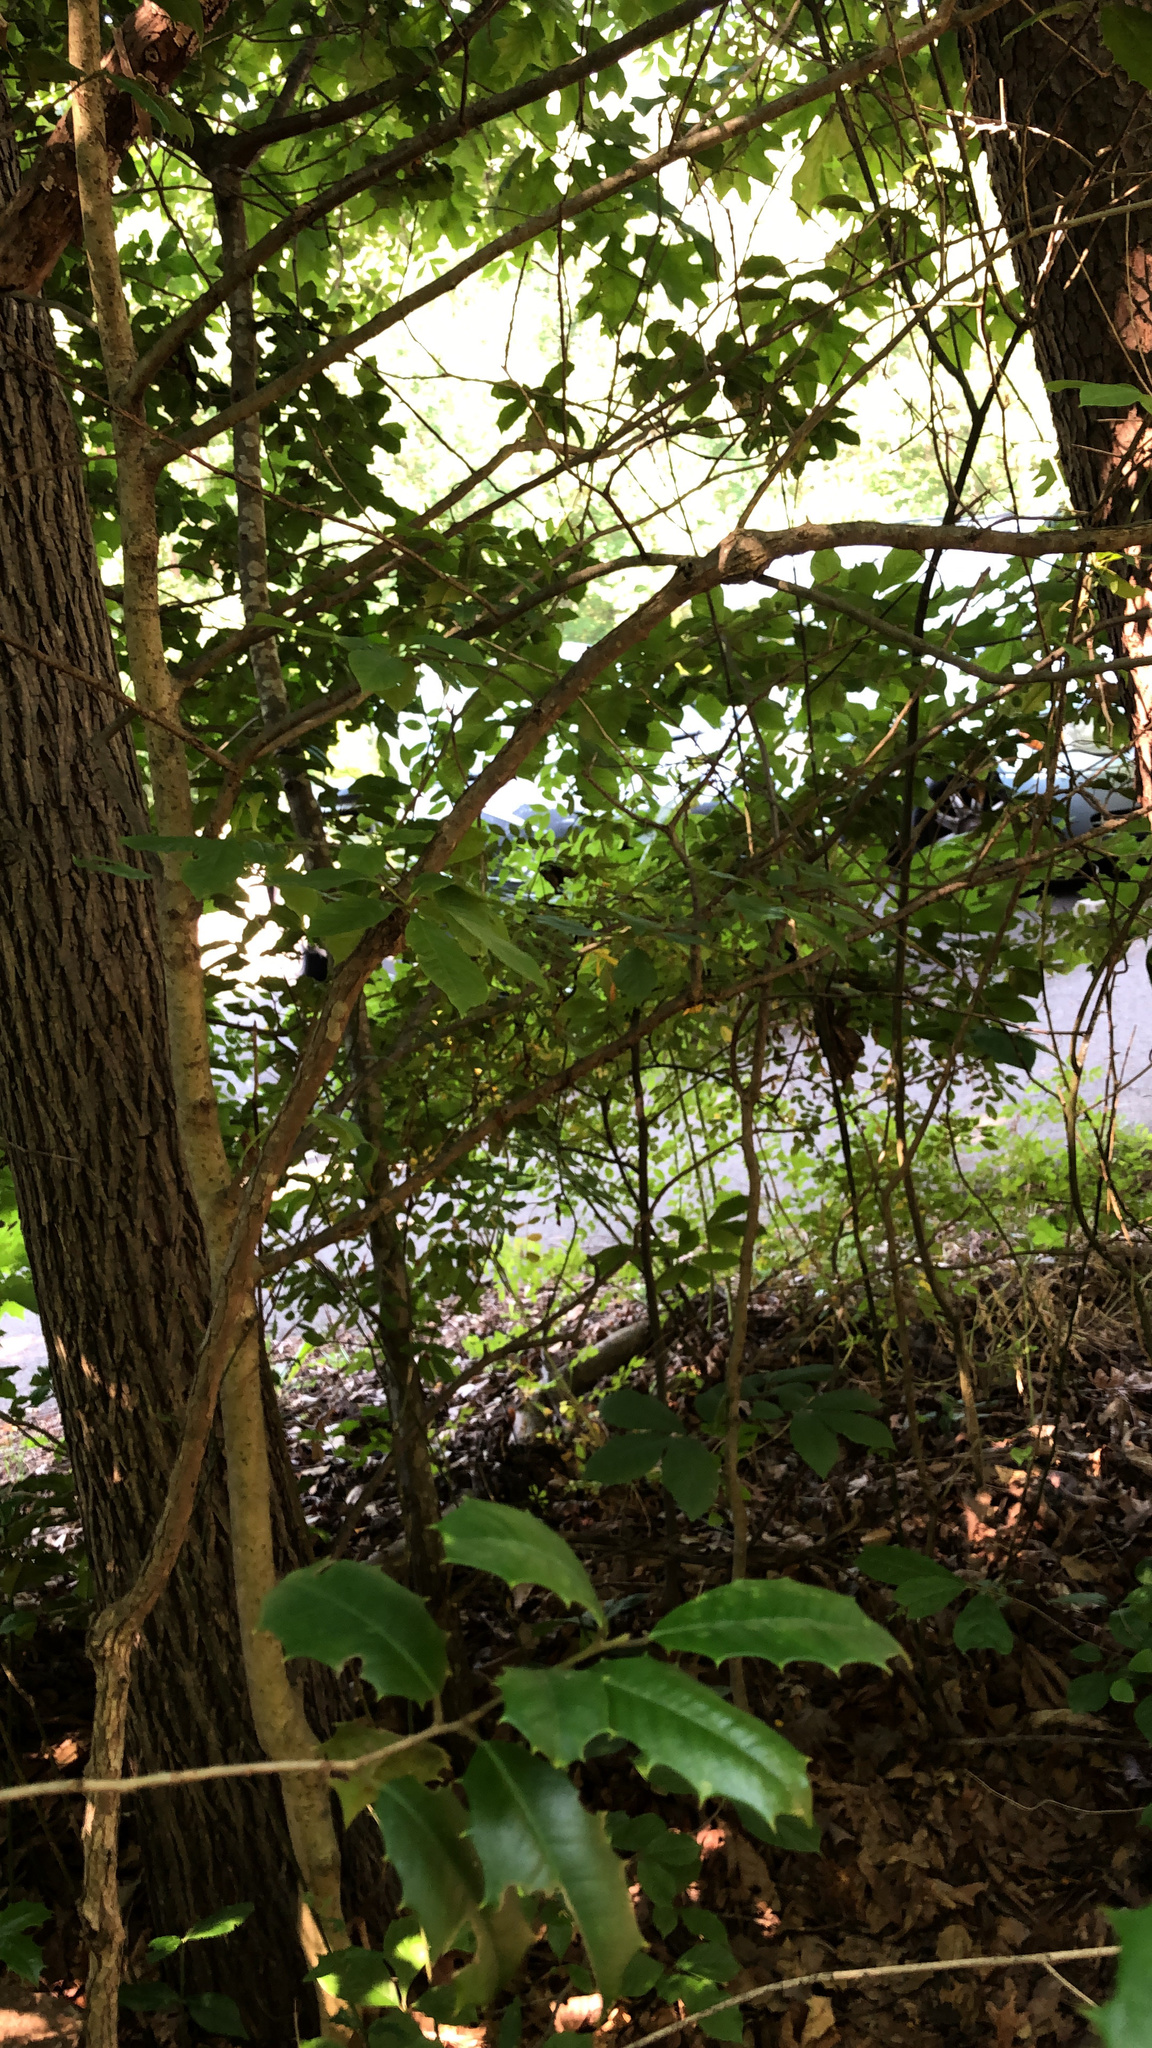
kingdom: Plantae
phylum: Tracheophyta
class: Magnoliopsida
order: Cornales
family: Nyssaceae
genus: Nyssa
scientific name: Nyssa sylvatica
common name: Black tupelo
